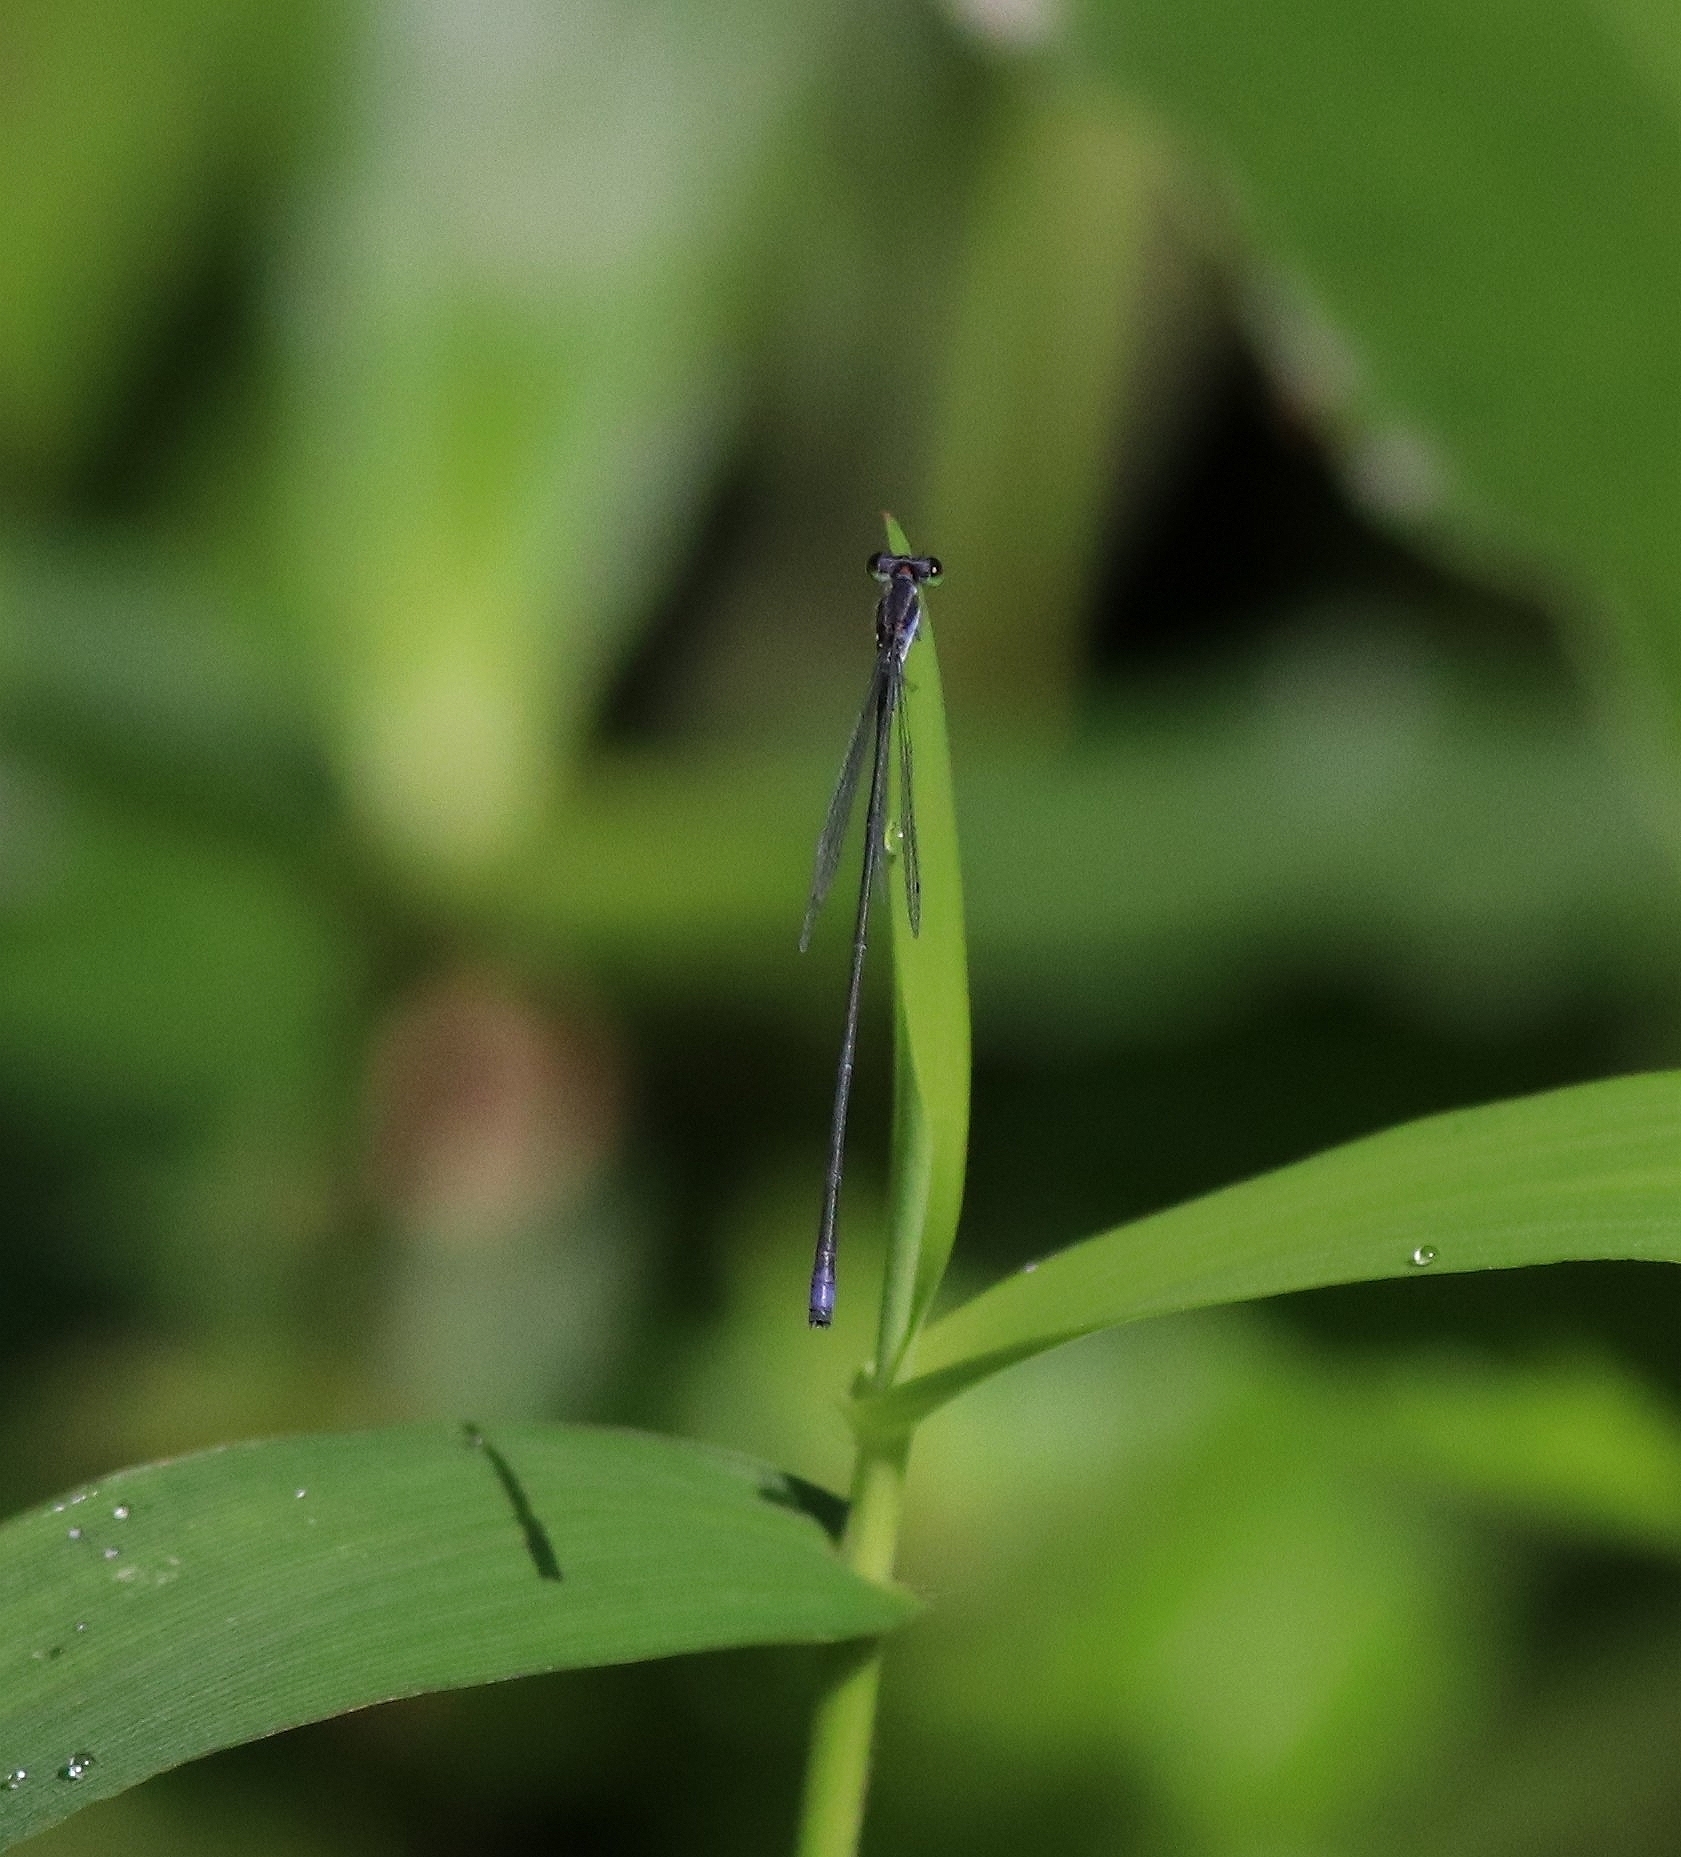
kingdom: Animalia
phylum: Arthropoda
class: Insecta
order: Odonata
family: Coenagrionidae
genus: Aciagrion
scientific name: Aciagrion approximans
